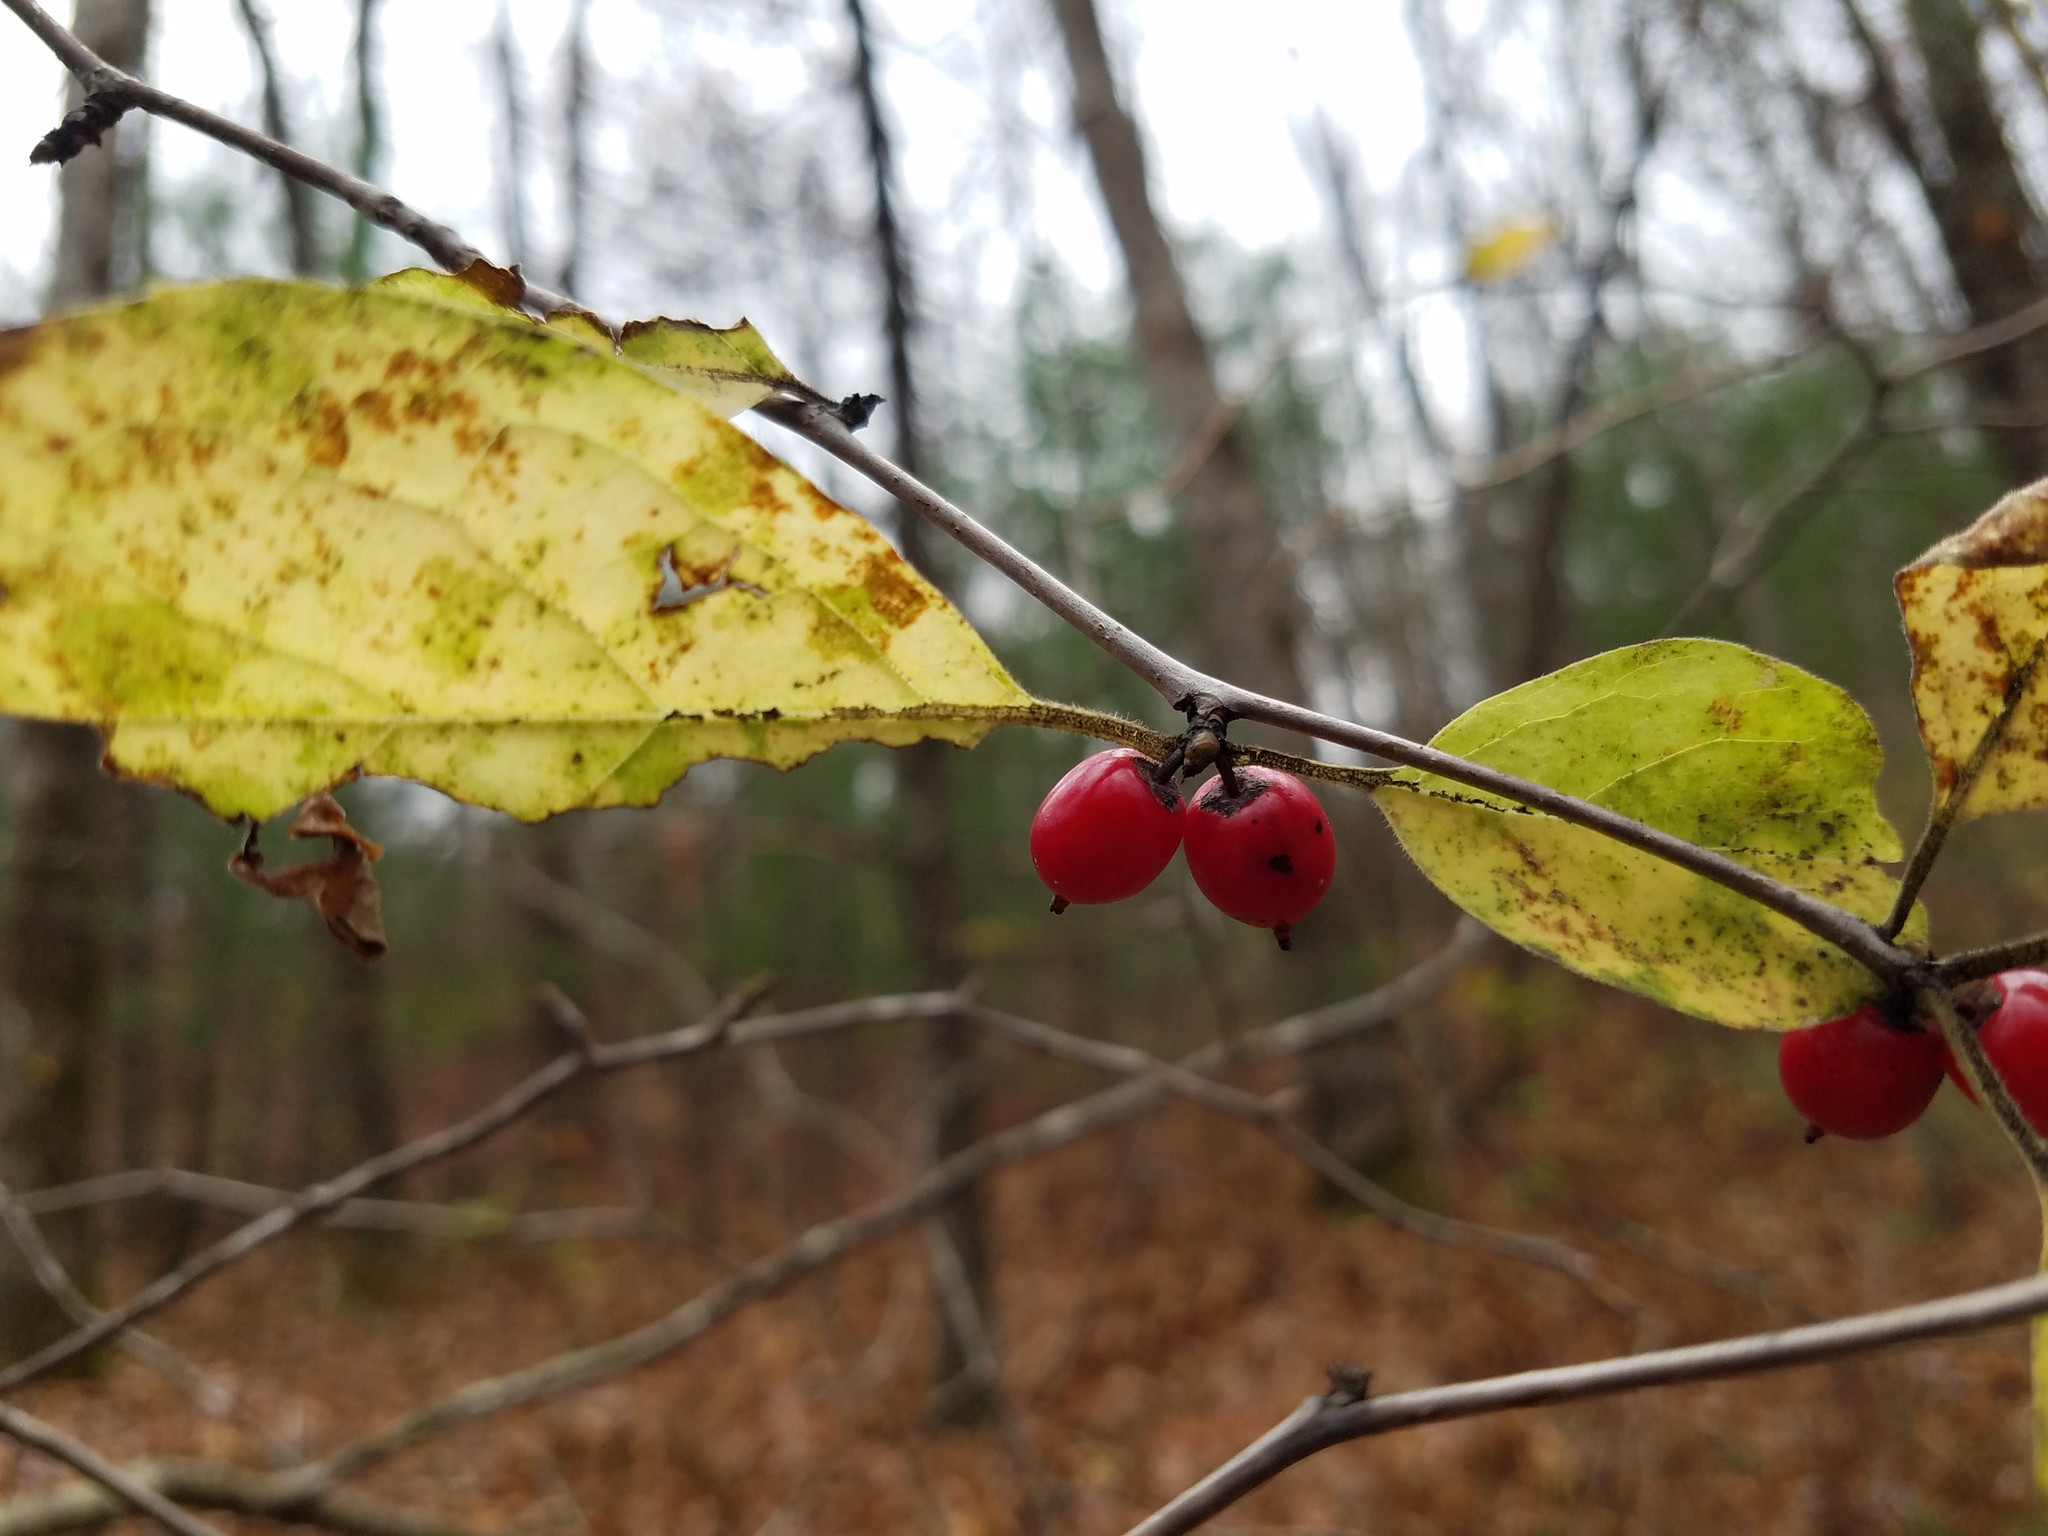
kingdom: Plantae
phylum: Tracheophyta
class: Magnoliopsida
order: Aquifoliales
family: Aquifoliaceae
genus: Ilex
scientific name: Ilex ambigua
